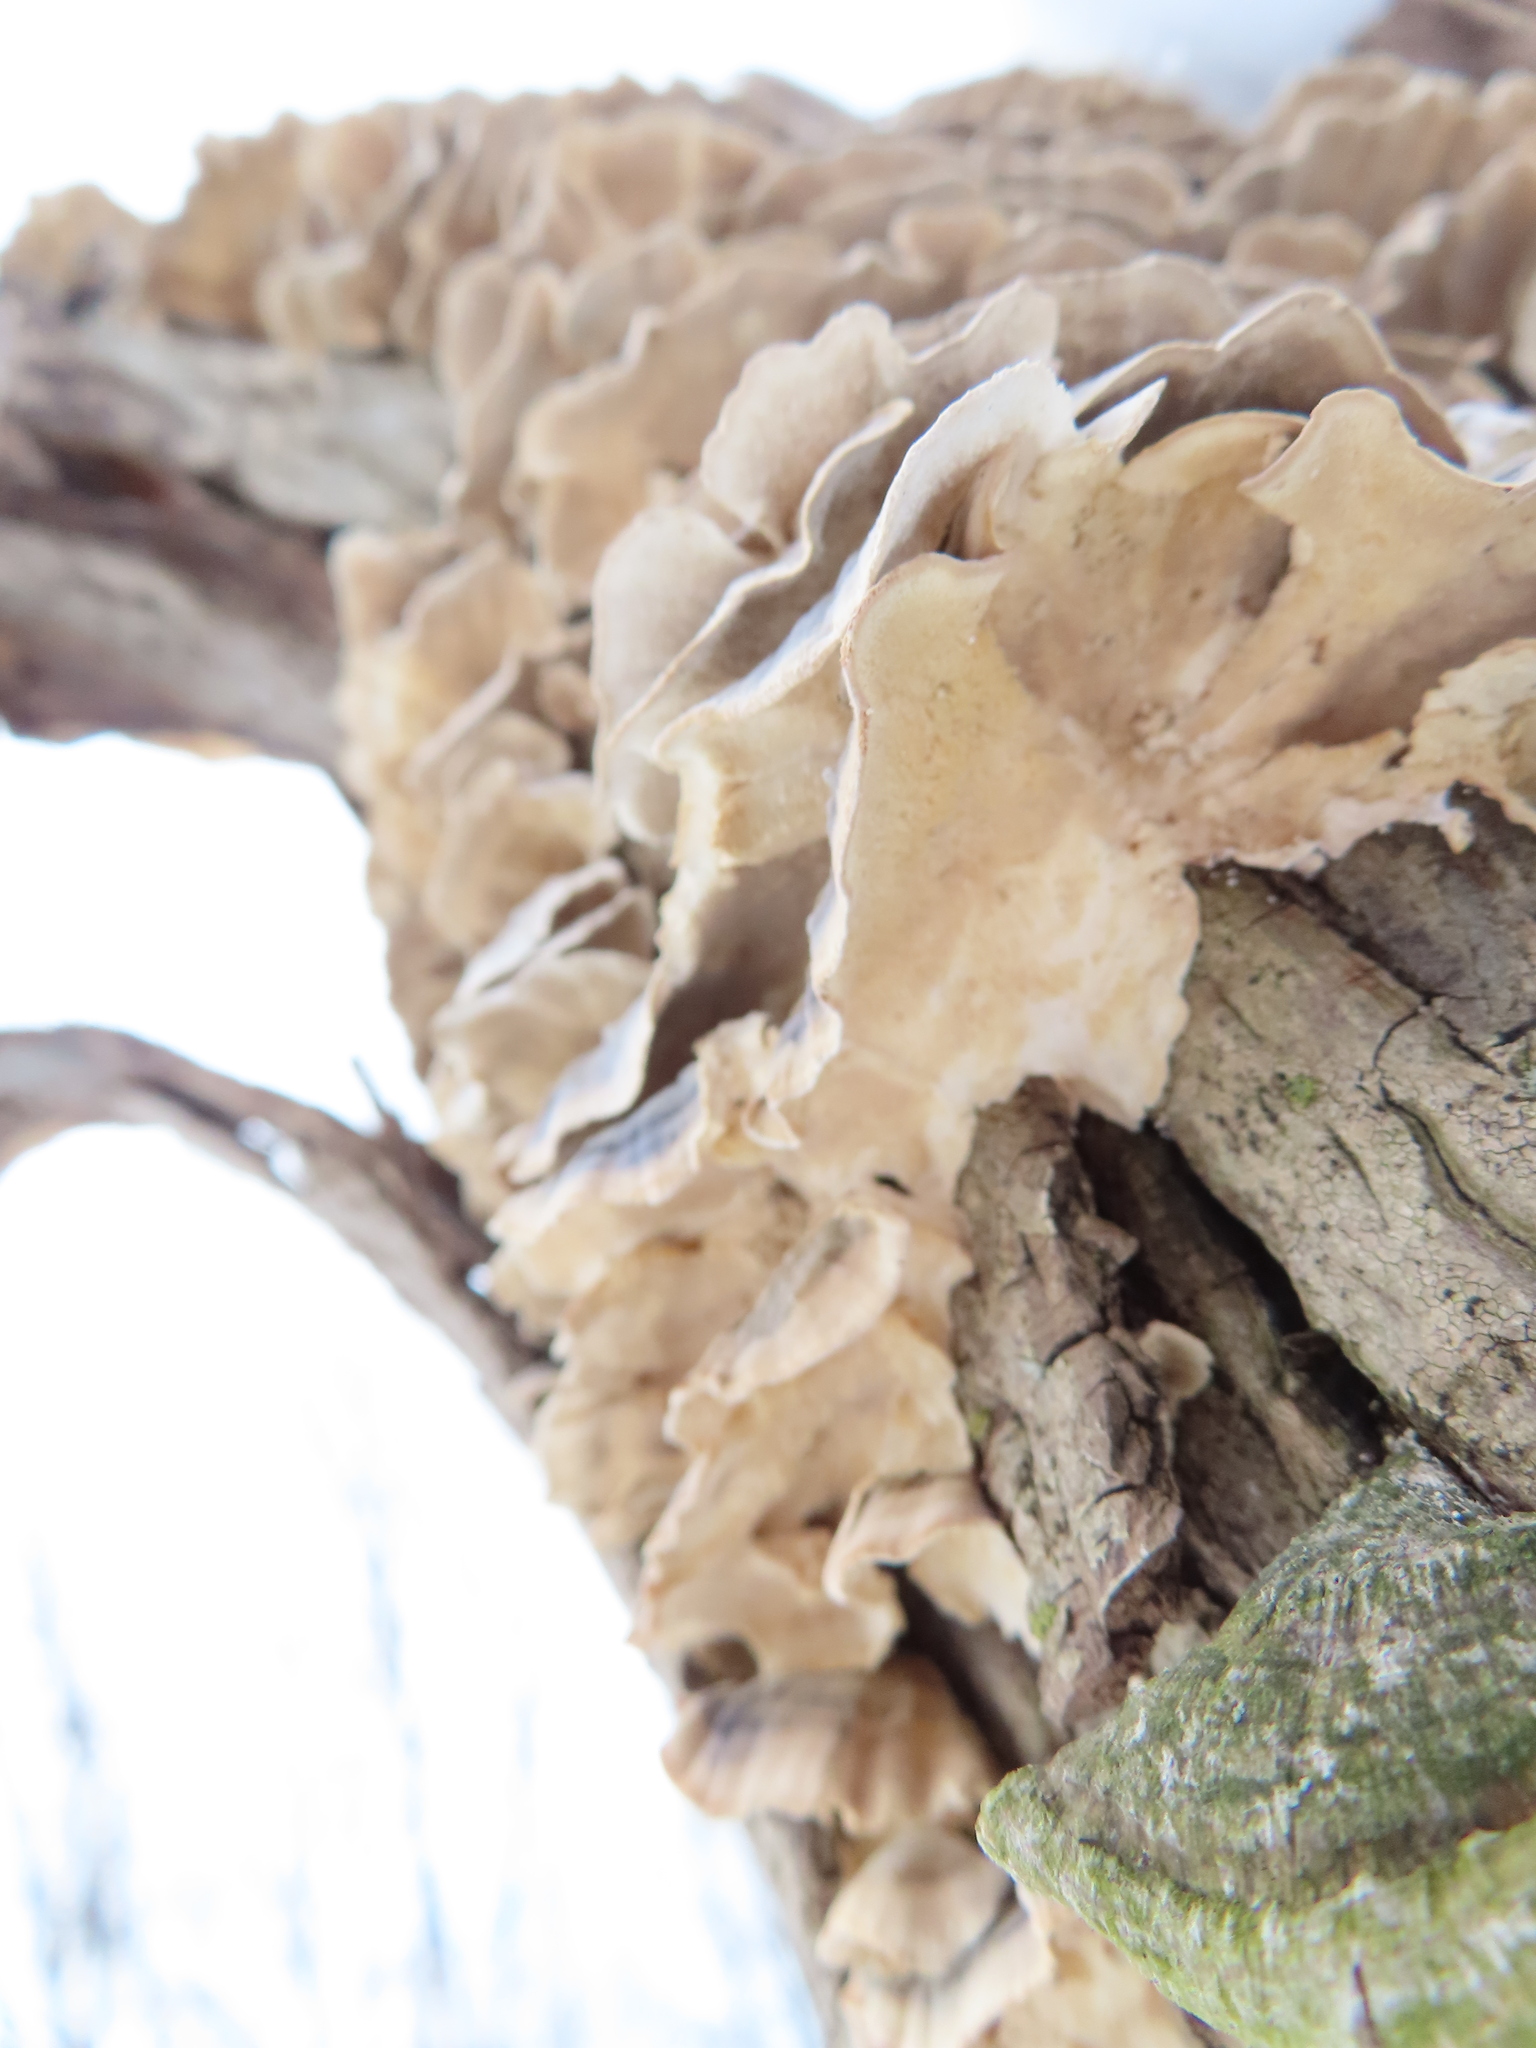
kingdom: Fungi
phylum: Basidiomycota
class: Agaricomycetes
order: Polyporales
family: Polyporaceae
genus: Trametes
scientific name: Trametes versicolor
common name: Turkeytail
